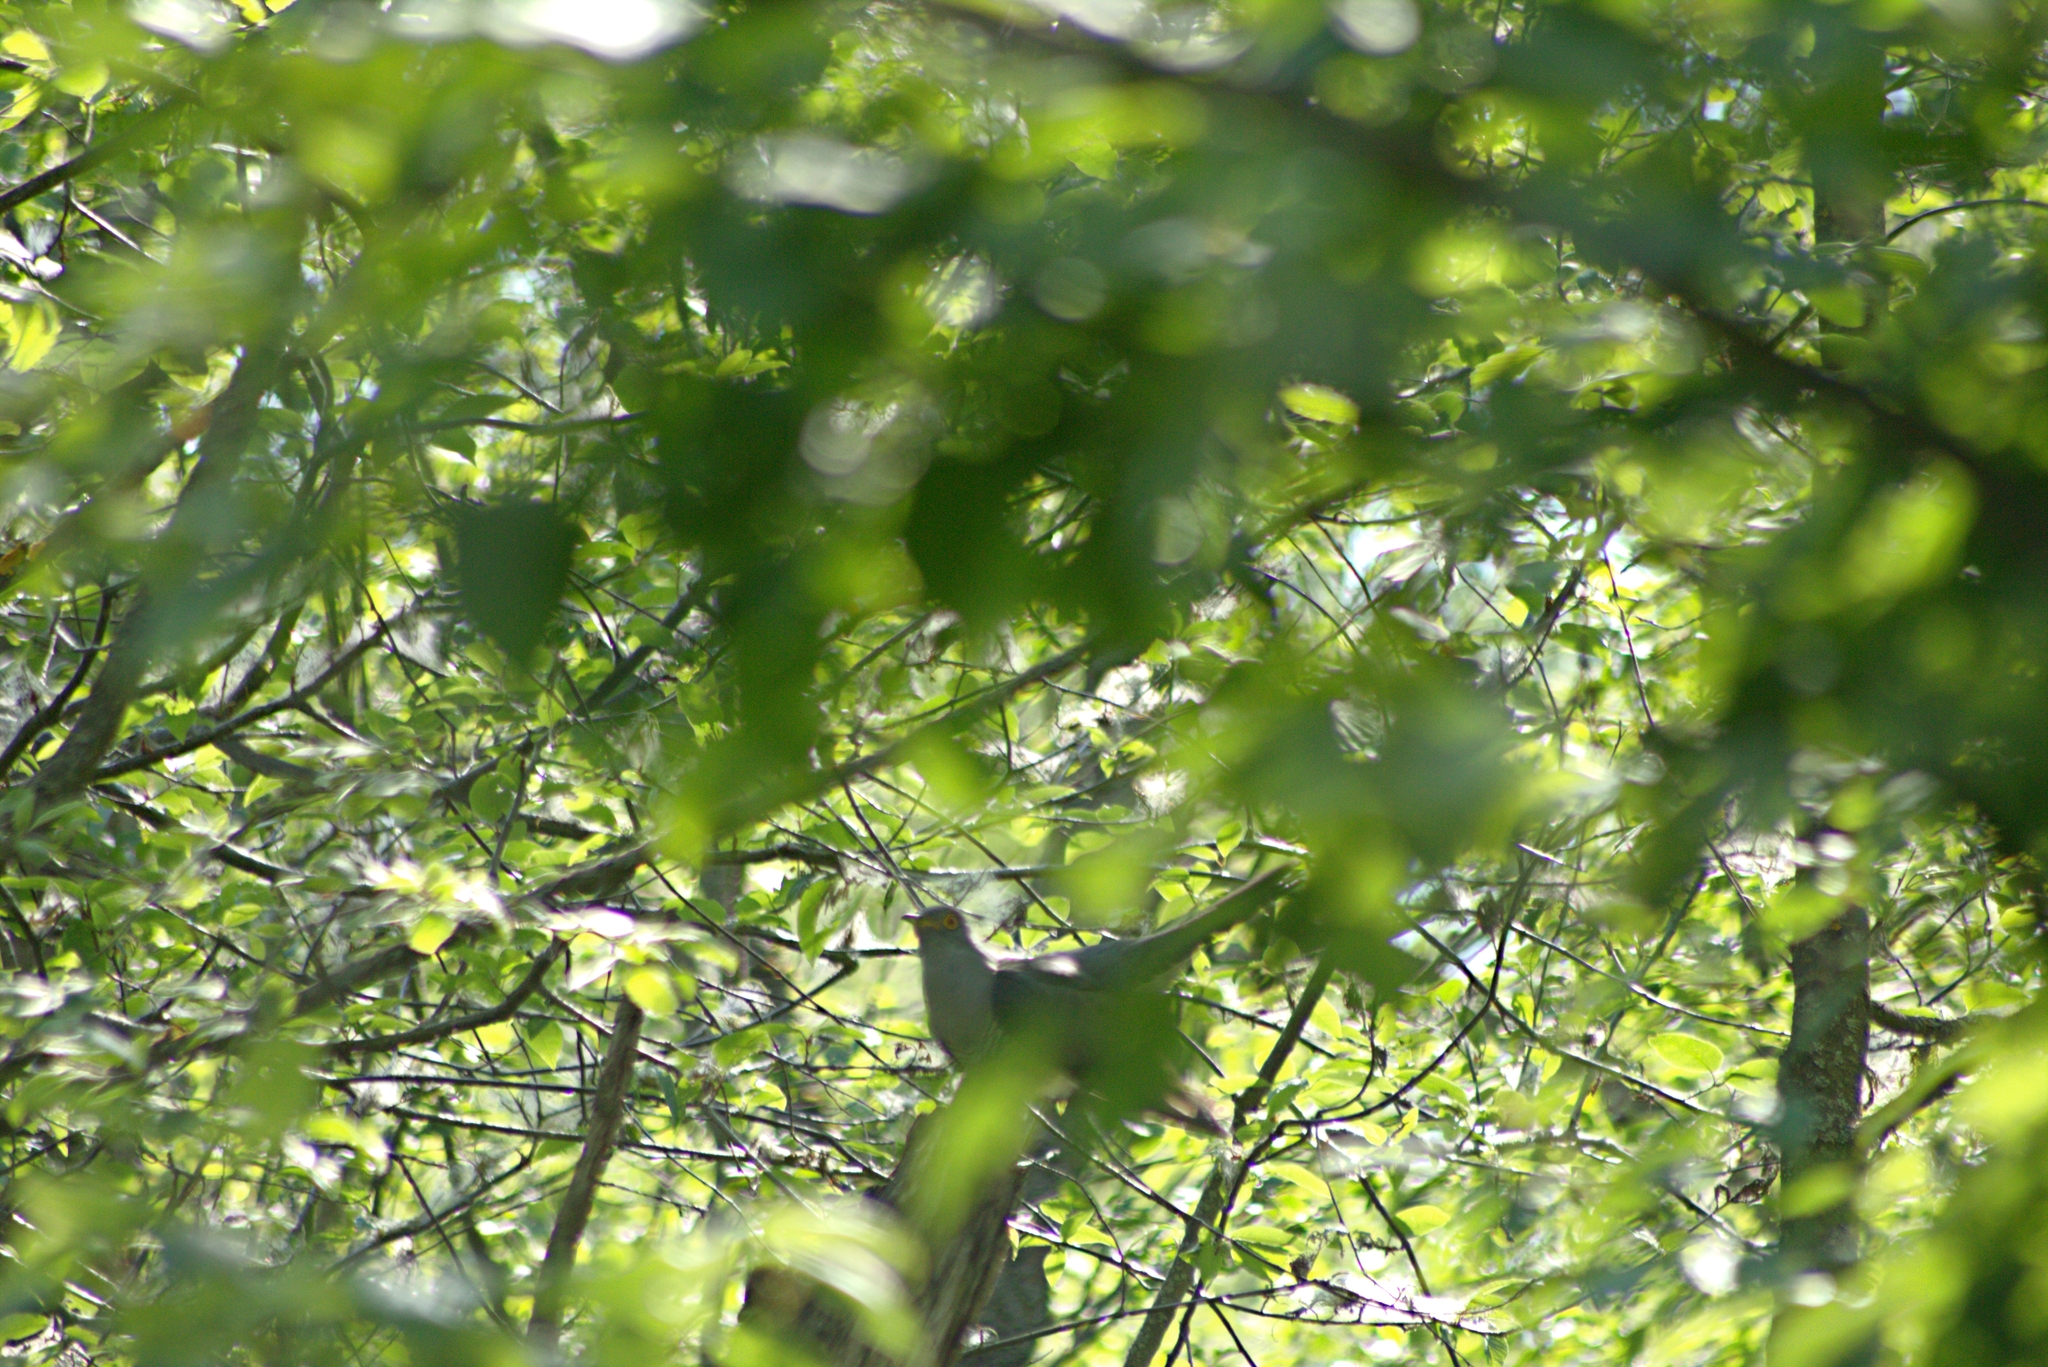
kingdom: Animalia
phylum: Chordata
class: Aves
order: Cuculiformes
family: Cuculidae
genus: Cuculus
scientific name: Cuculus canorus
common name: Common cuckoo
